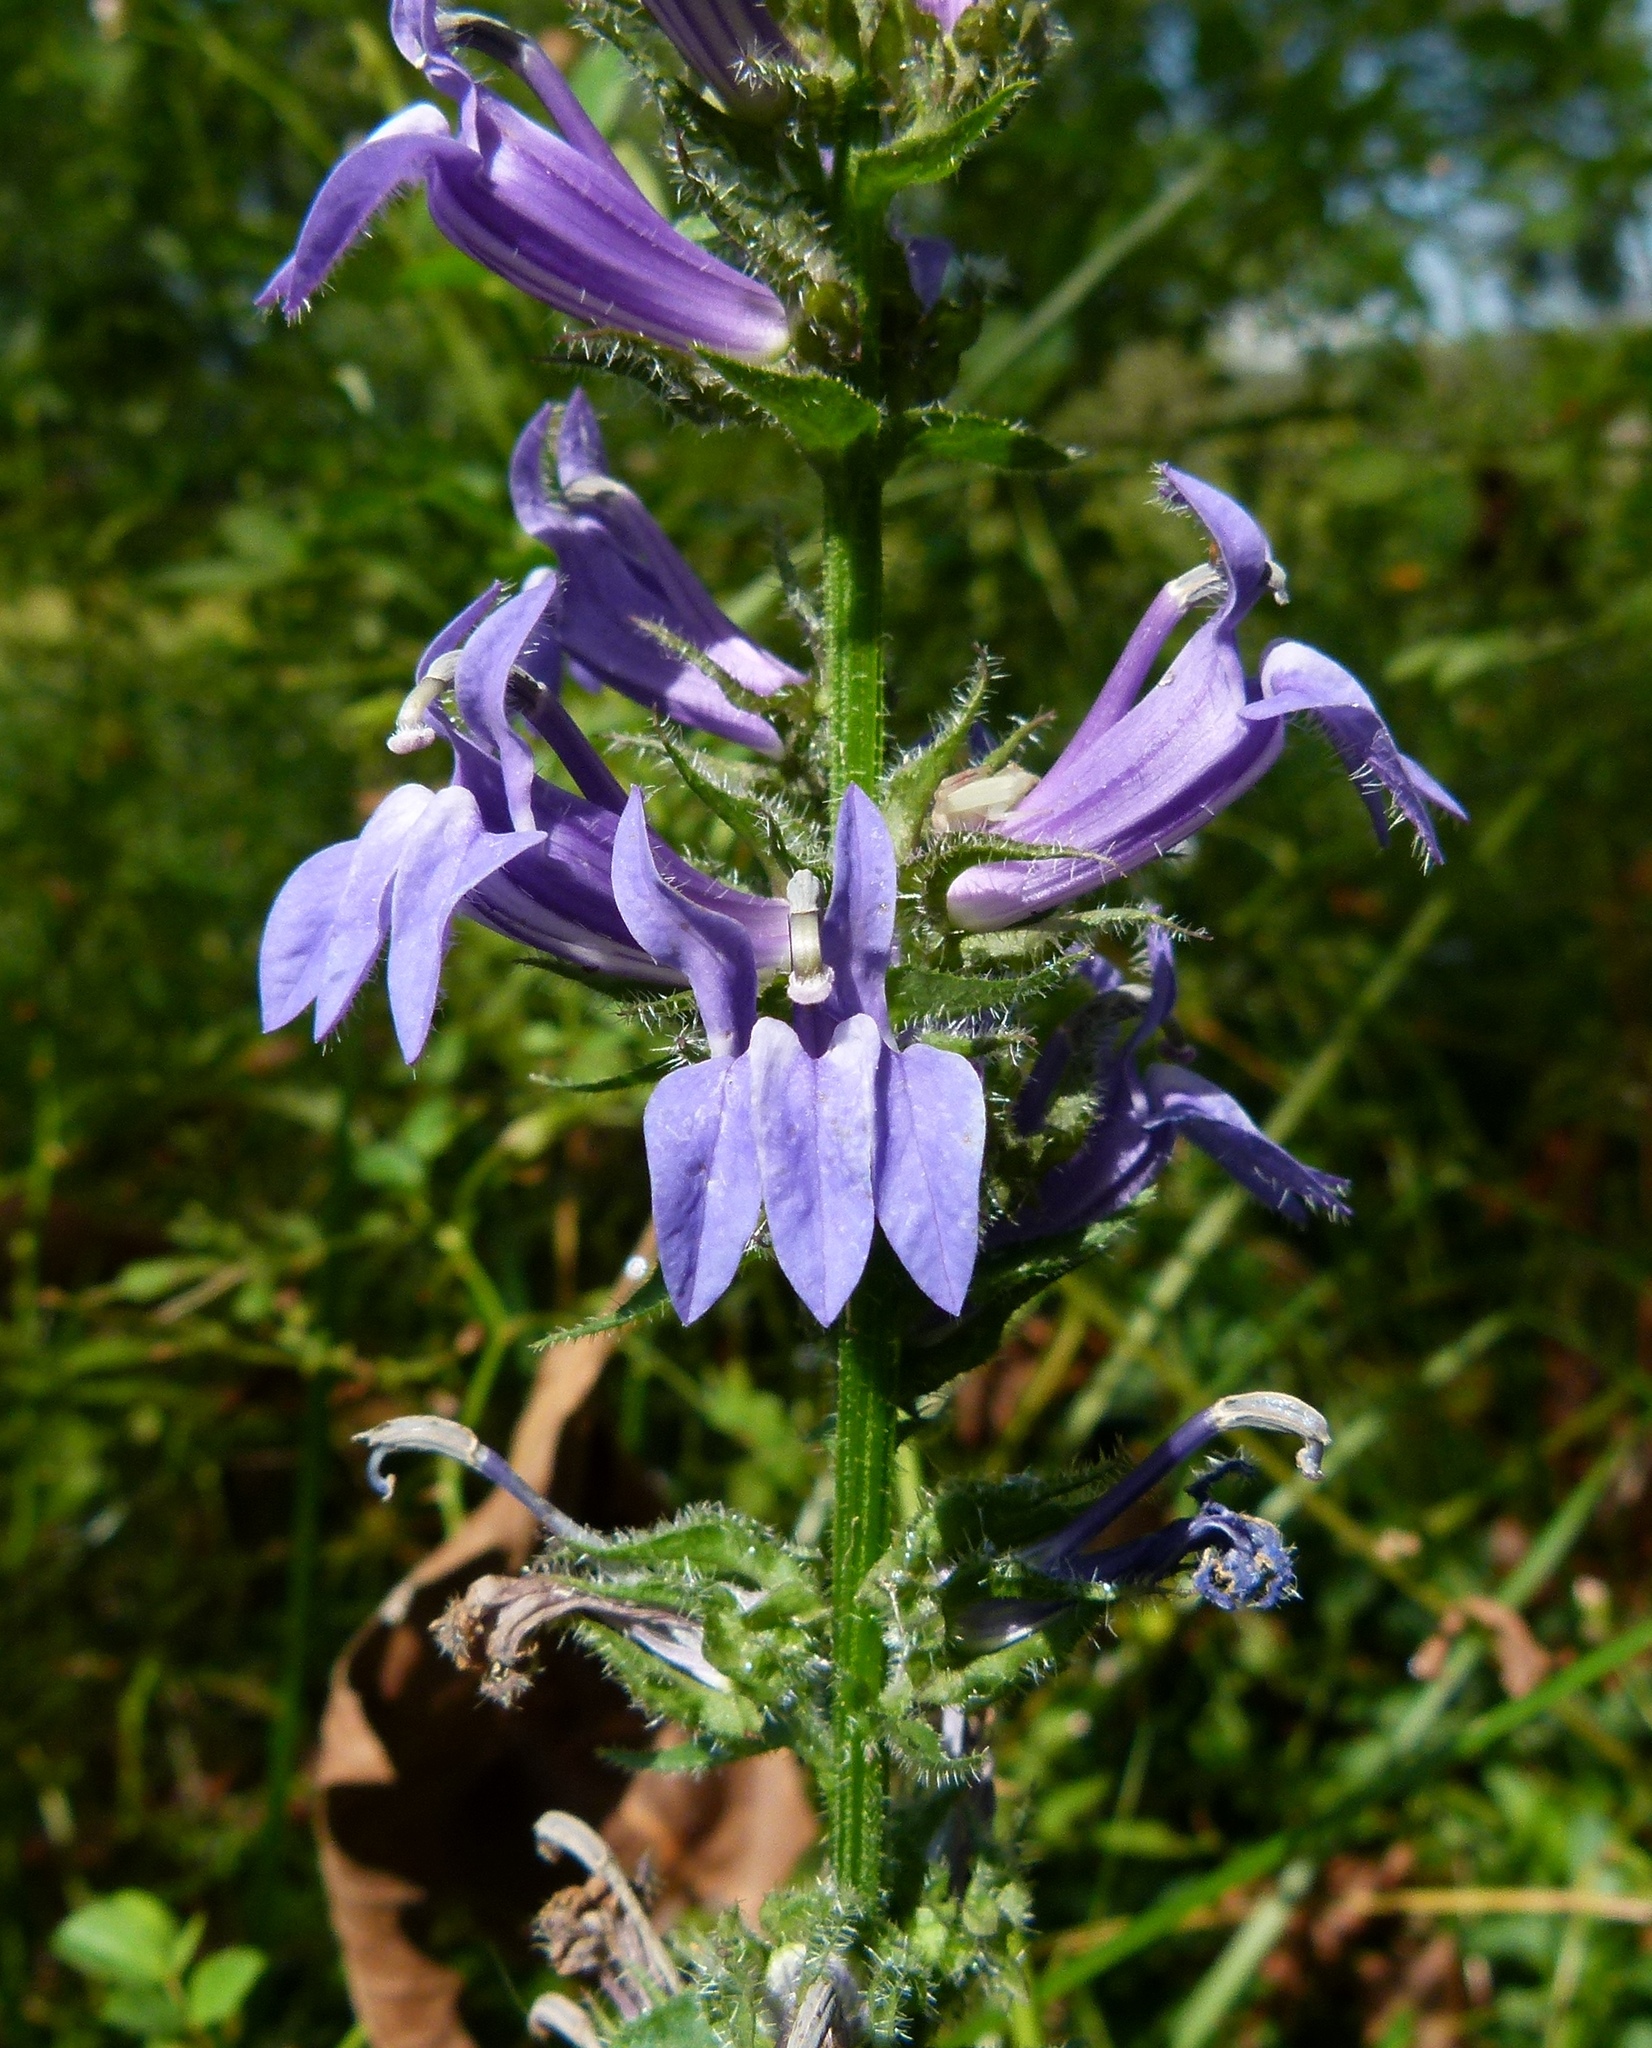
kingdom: Plantae
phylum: Tracheophyta
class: Magnoliopsida
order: Asterales
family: Campanulaceae
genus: Lobelia
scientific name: Lobelia siphilitica
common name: Great lobelia
